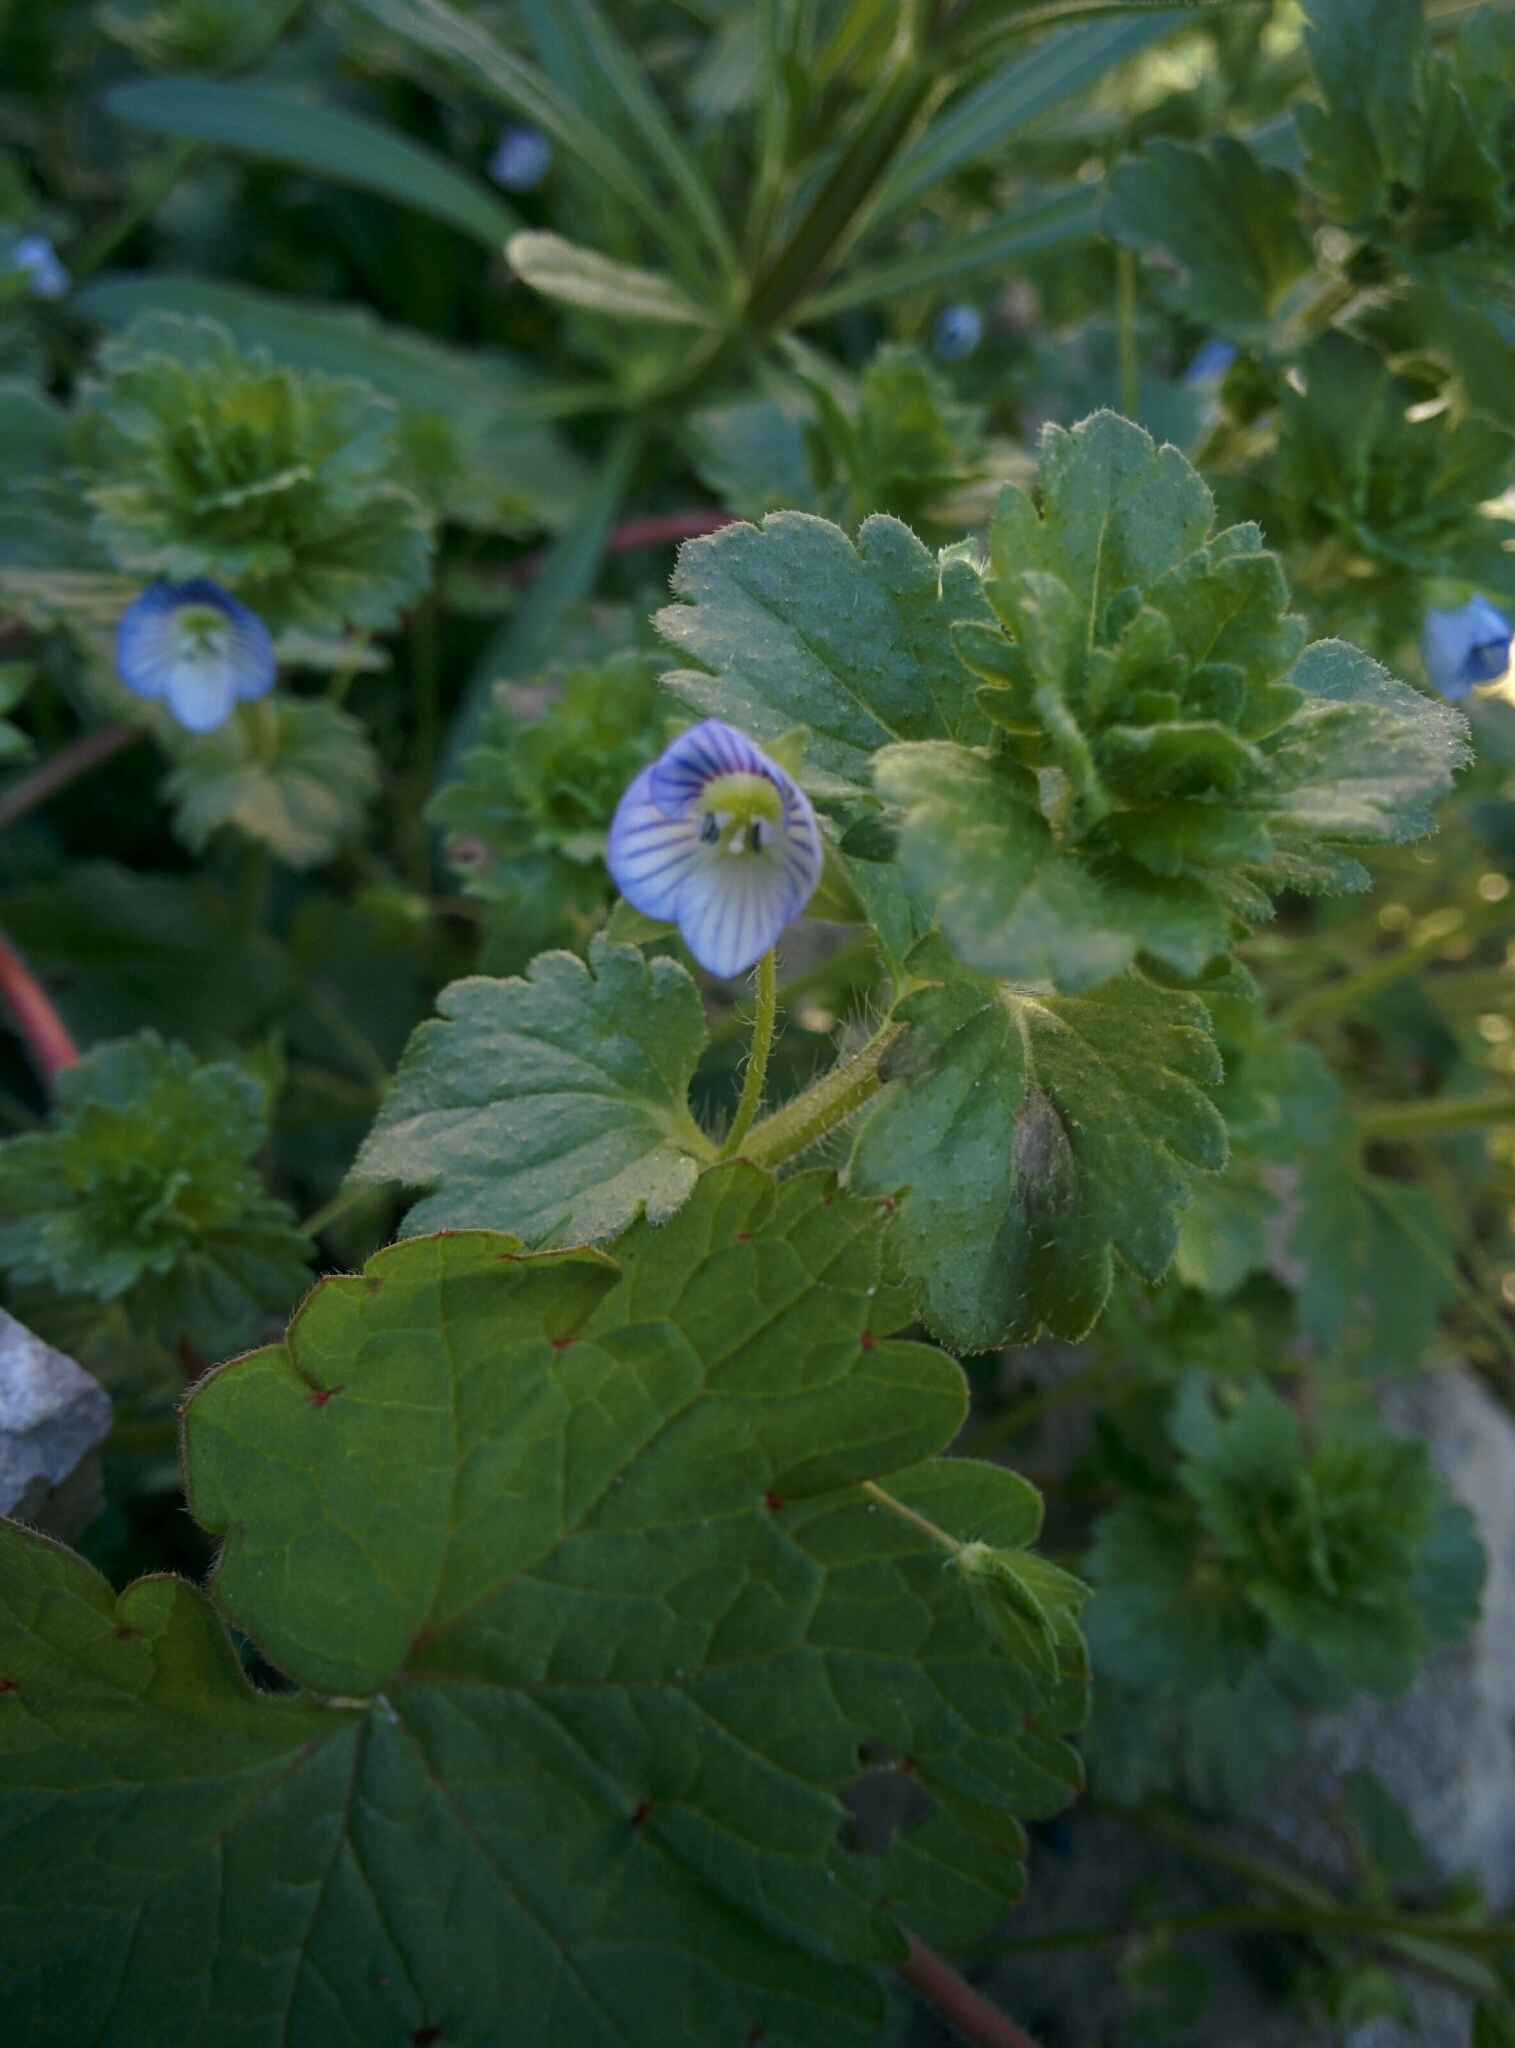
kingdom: Plantae
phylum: Tracheophyta
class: Magnoliopsida
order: Lamiales
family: Plantaginaceae
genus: Veronica
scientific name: Veronica persica
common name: Common field-speedwell
